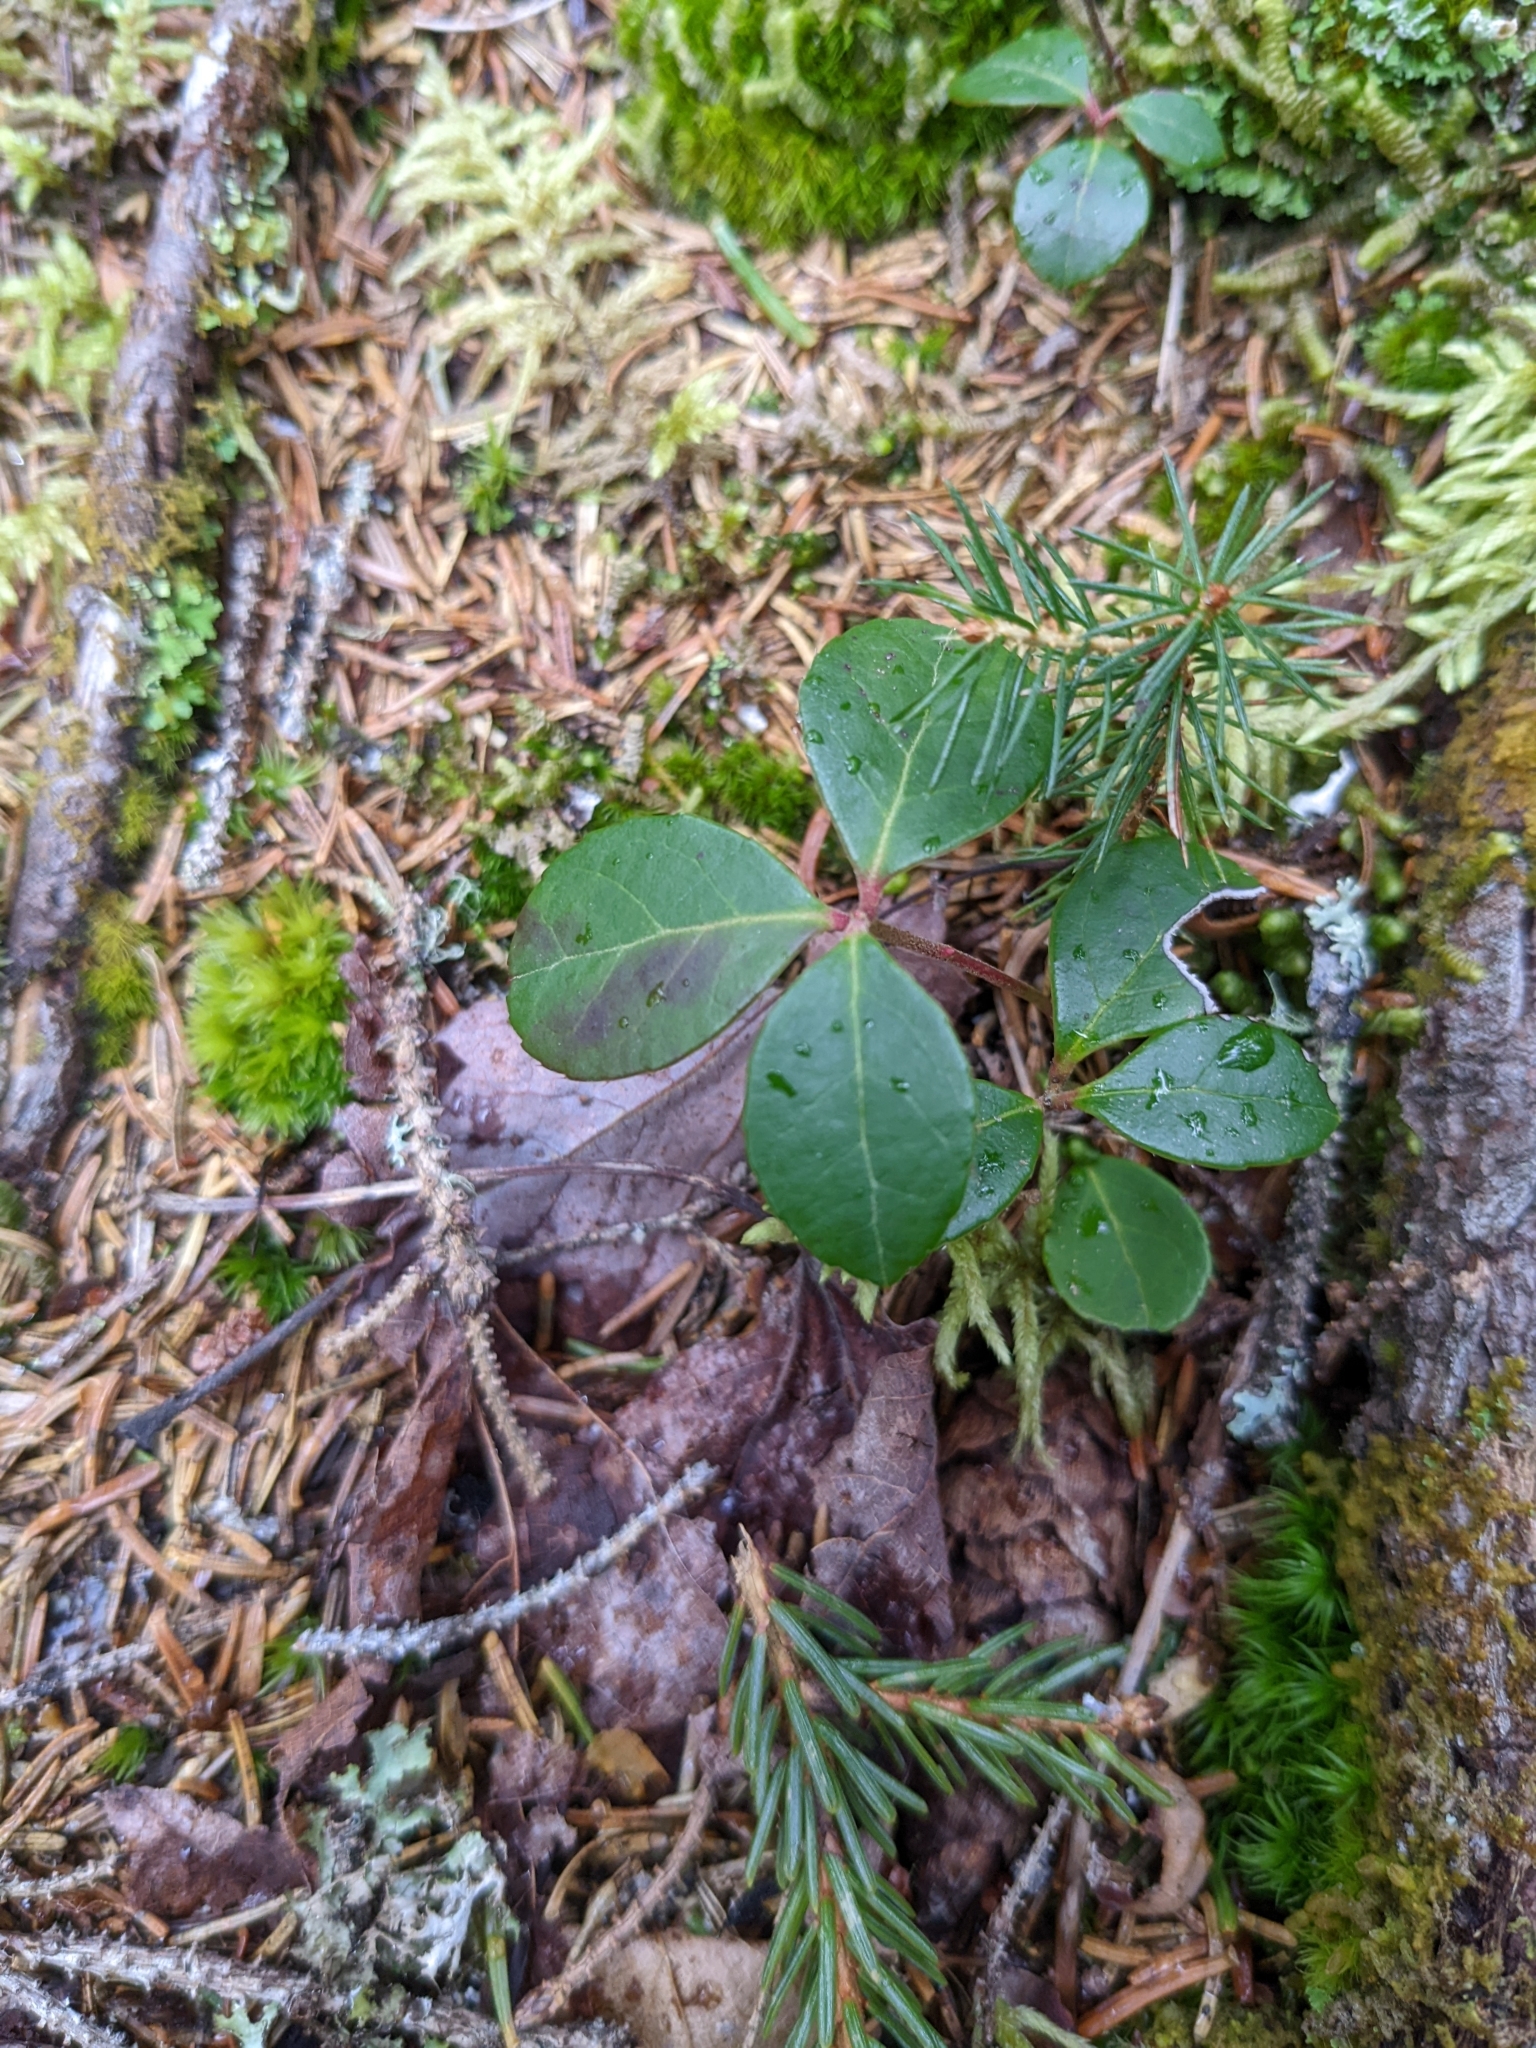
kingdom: Plantae
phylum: Tracheophyta
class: Magnoliopsida
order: Ericales
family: Ericaceae
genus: Gaultheria
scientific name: Gaultheria procumbens
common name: Checkerberry
